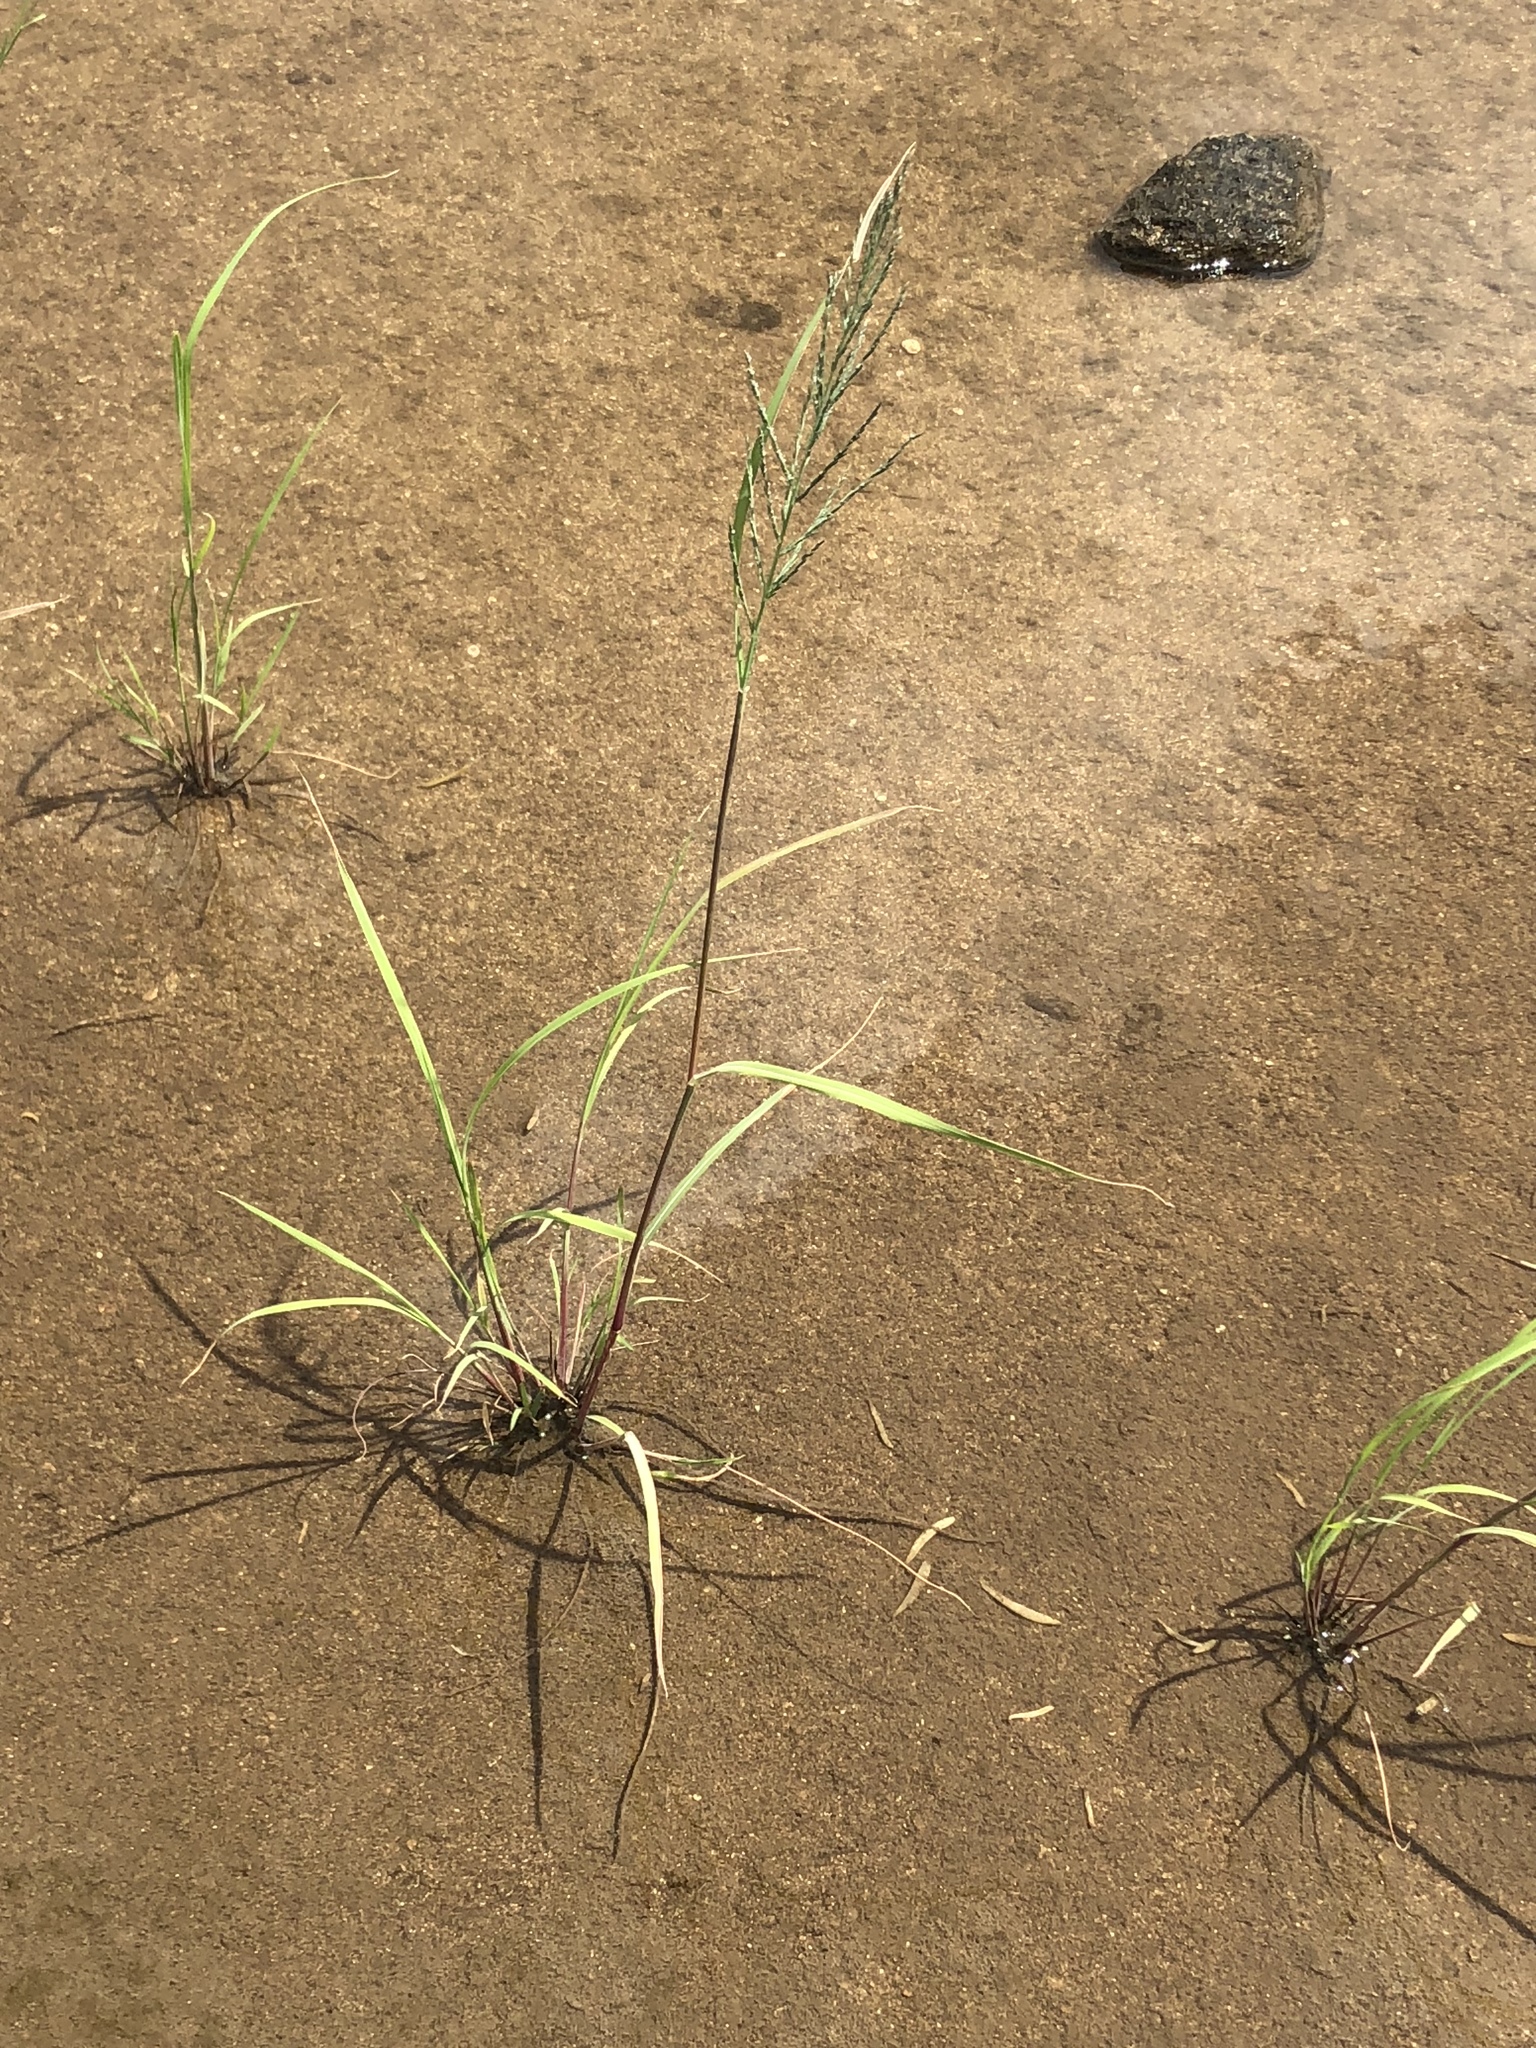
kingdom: Plantae
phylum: Tracheophyta
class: Liliopsida
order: Poales
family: Poaceae
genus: Diplachne
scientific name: Diplachne fusca
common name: Brown beetle grass
